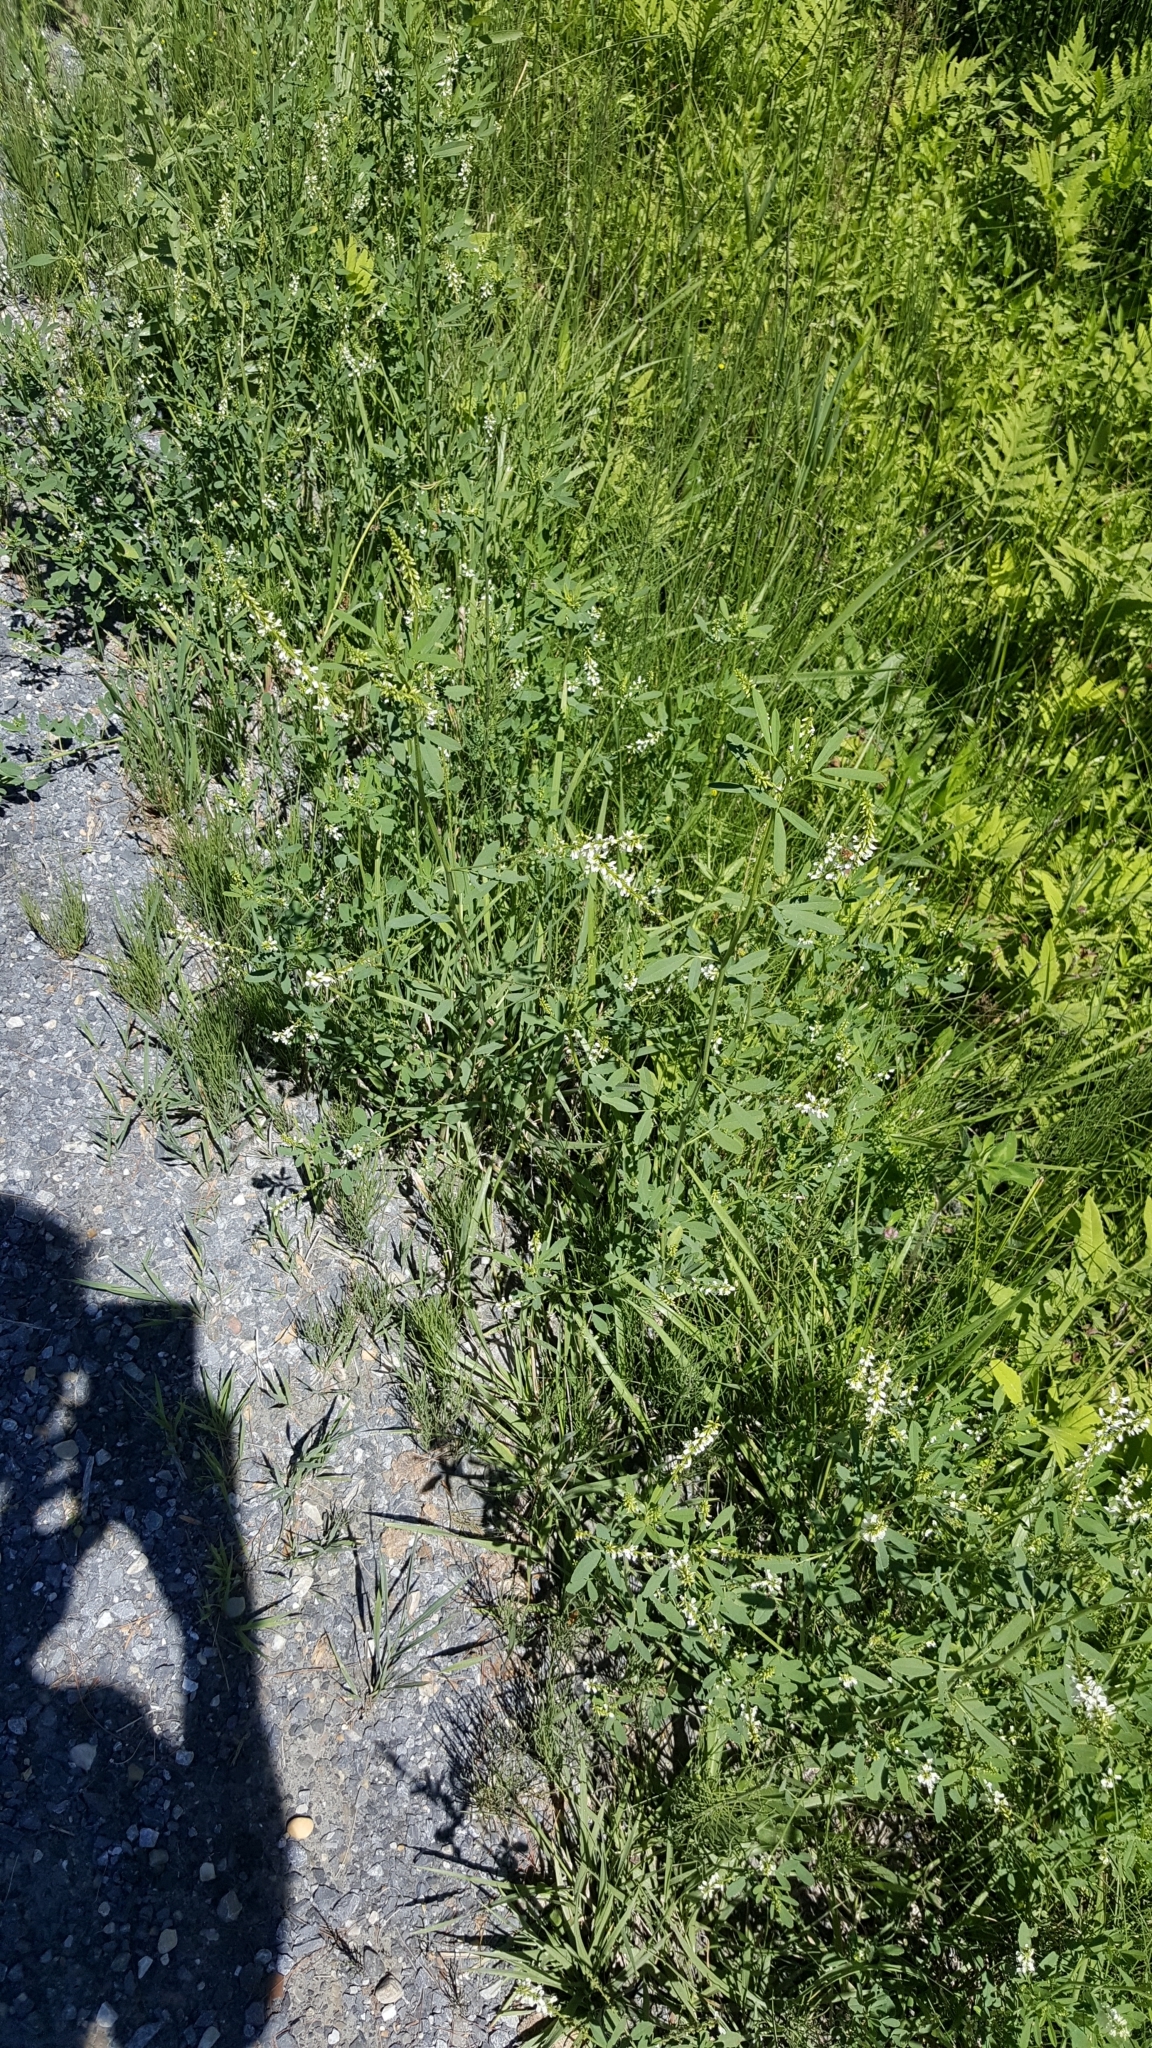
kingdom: Plantae
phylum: Tracheophyta
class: Magnoliopsida
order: Fabales
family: Fabaceae
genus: Melilotus
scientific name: Melilotus albus
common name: White melilot
